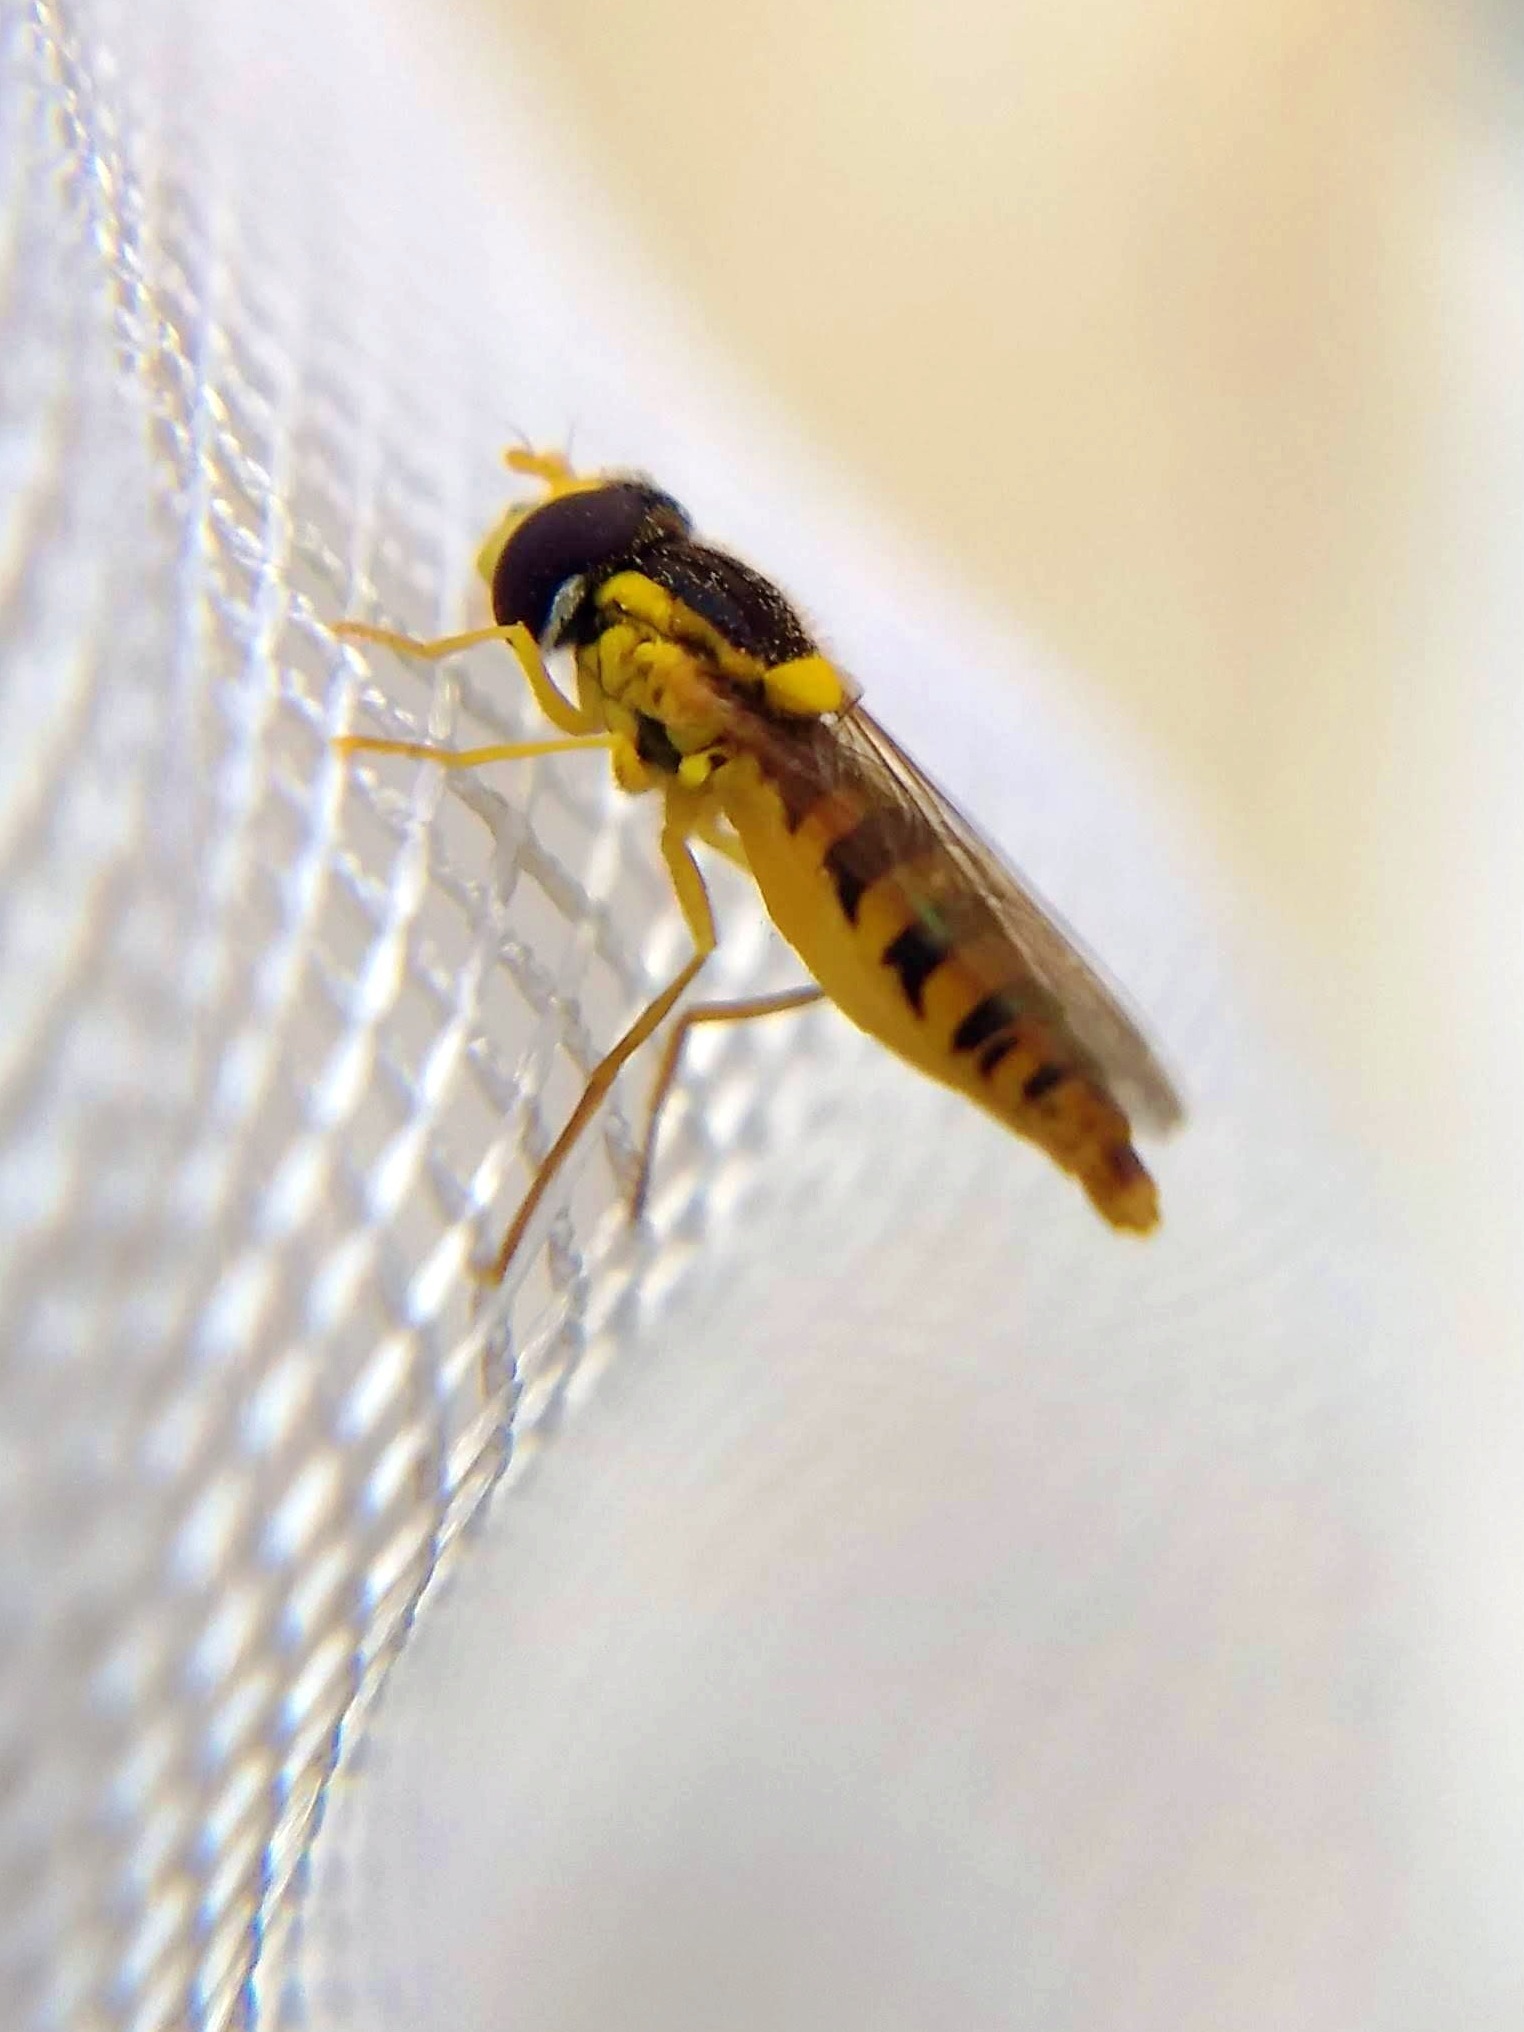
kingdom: Animalia
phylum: Arthropoda
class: Insecta
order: Diptera
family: Syrphidae
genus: Sphaerophoria
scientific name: Sphaerophoria
